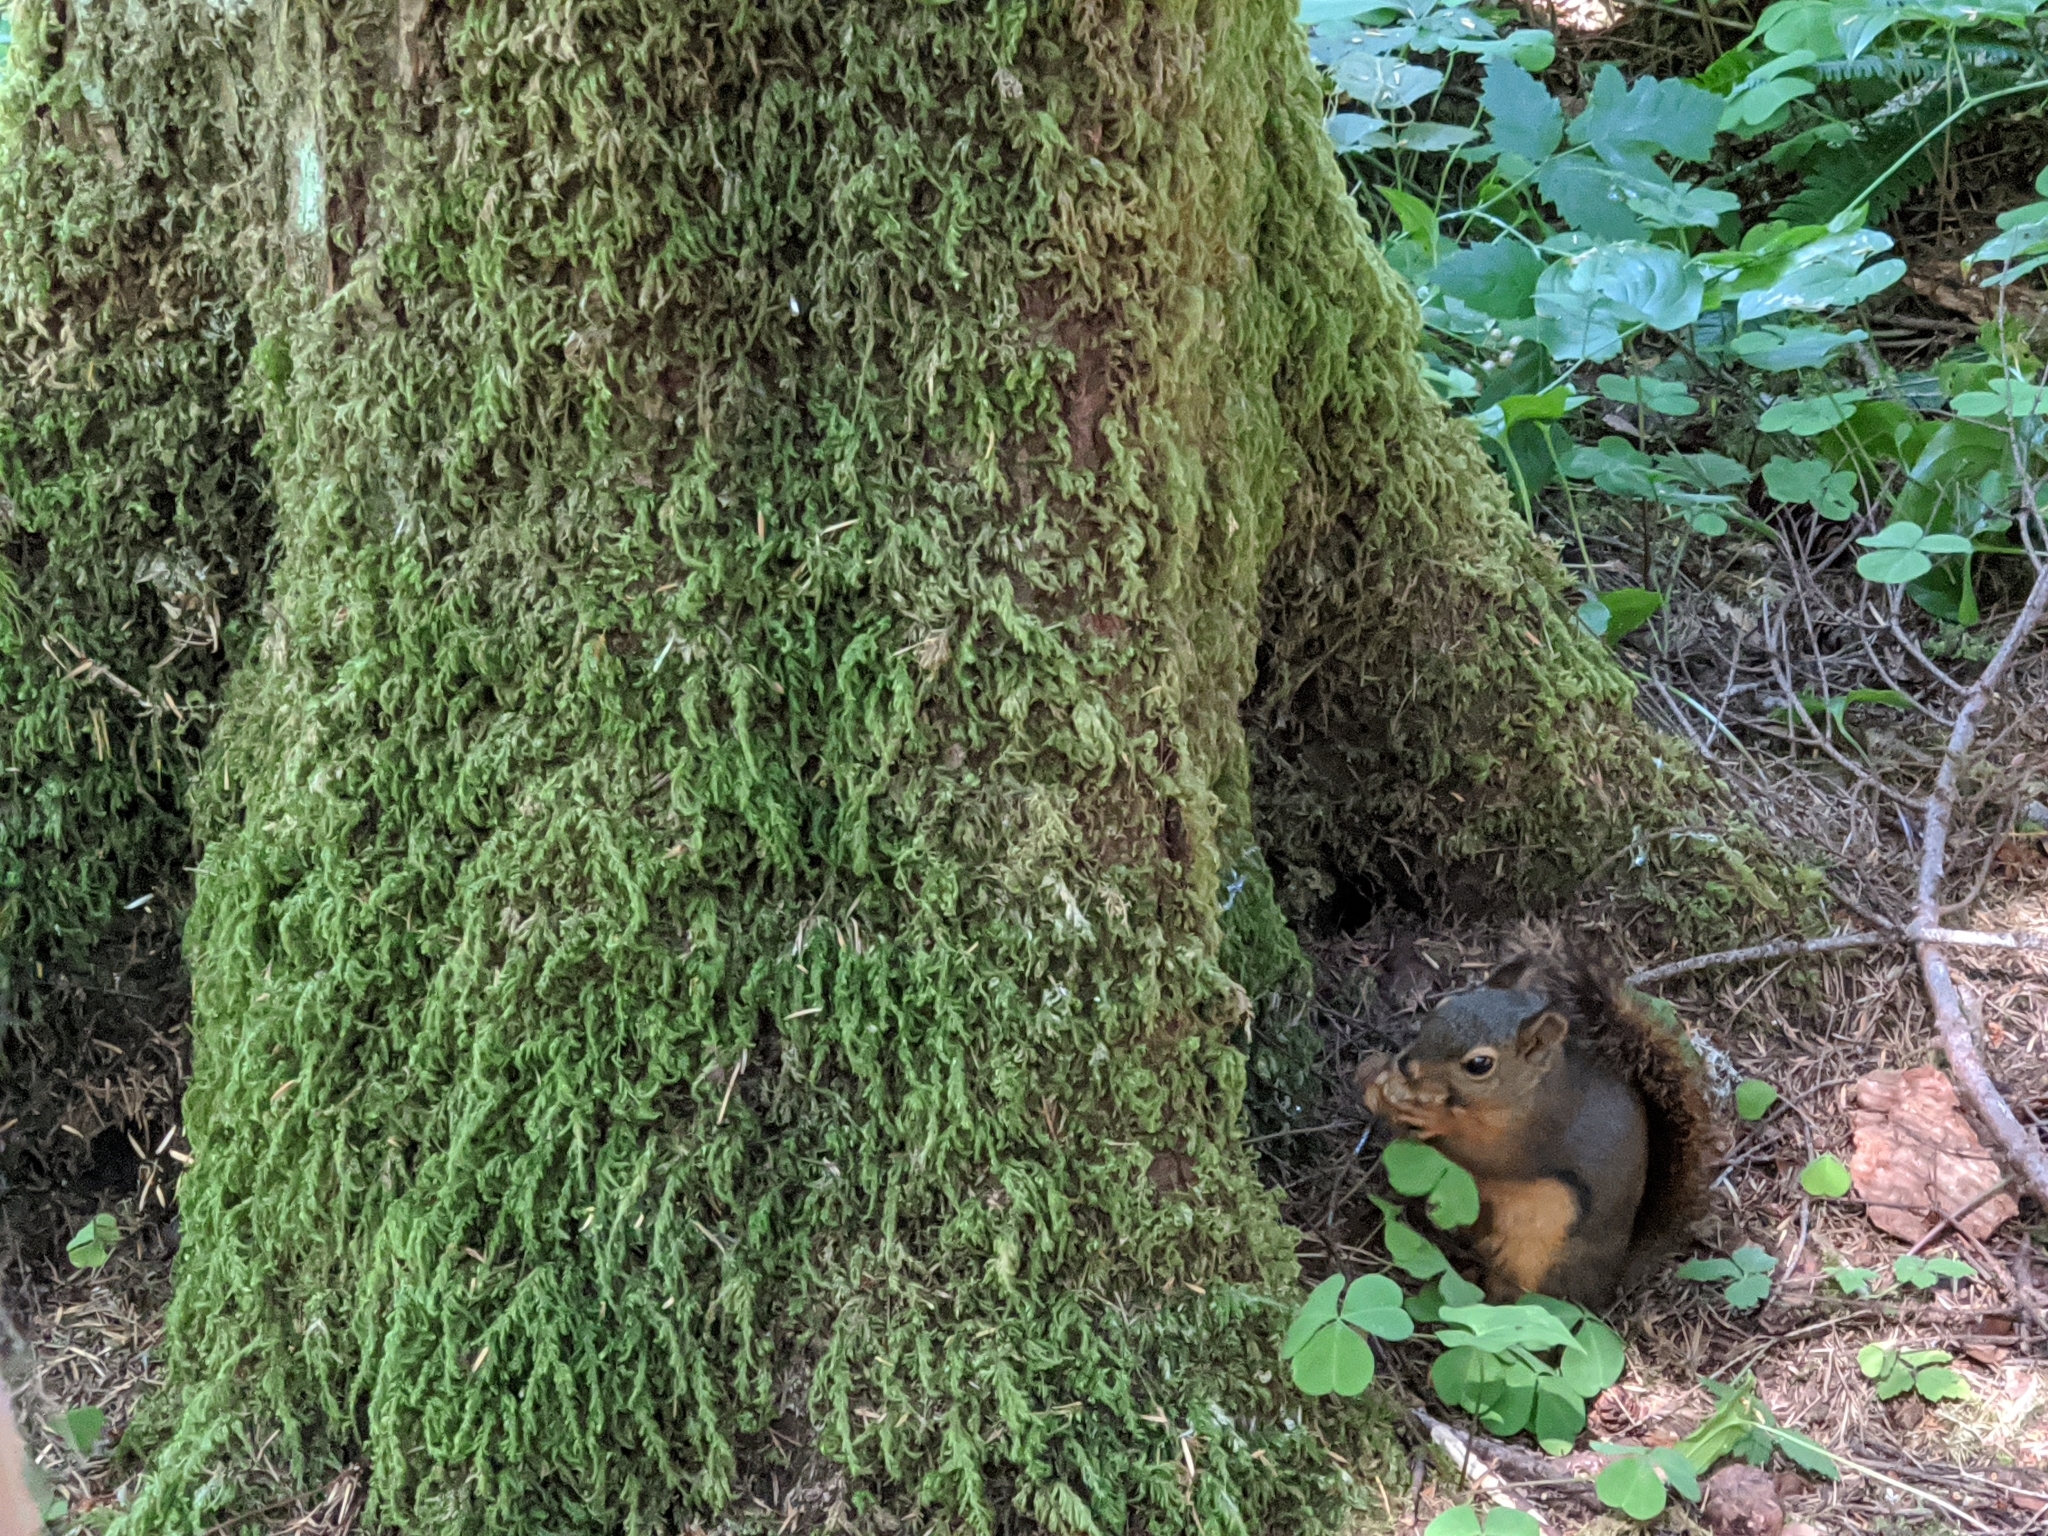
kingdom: Animalia
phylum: Chordata
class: Mammalia
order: Rodentia
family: Sciuridae
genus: Tamiasciurus
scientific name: Tamiasciurus douglasii
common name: Douglas's squirrel
